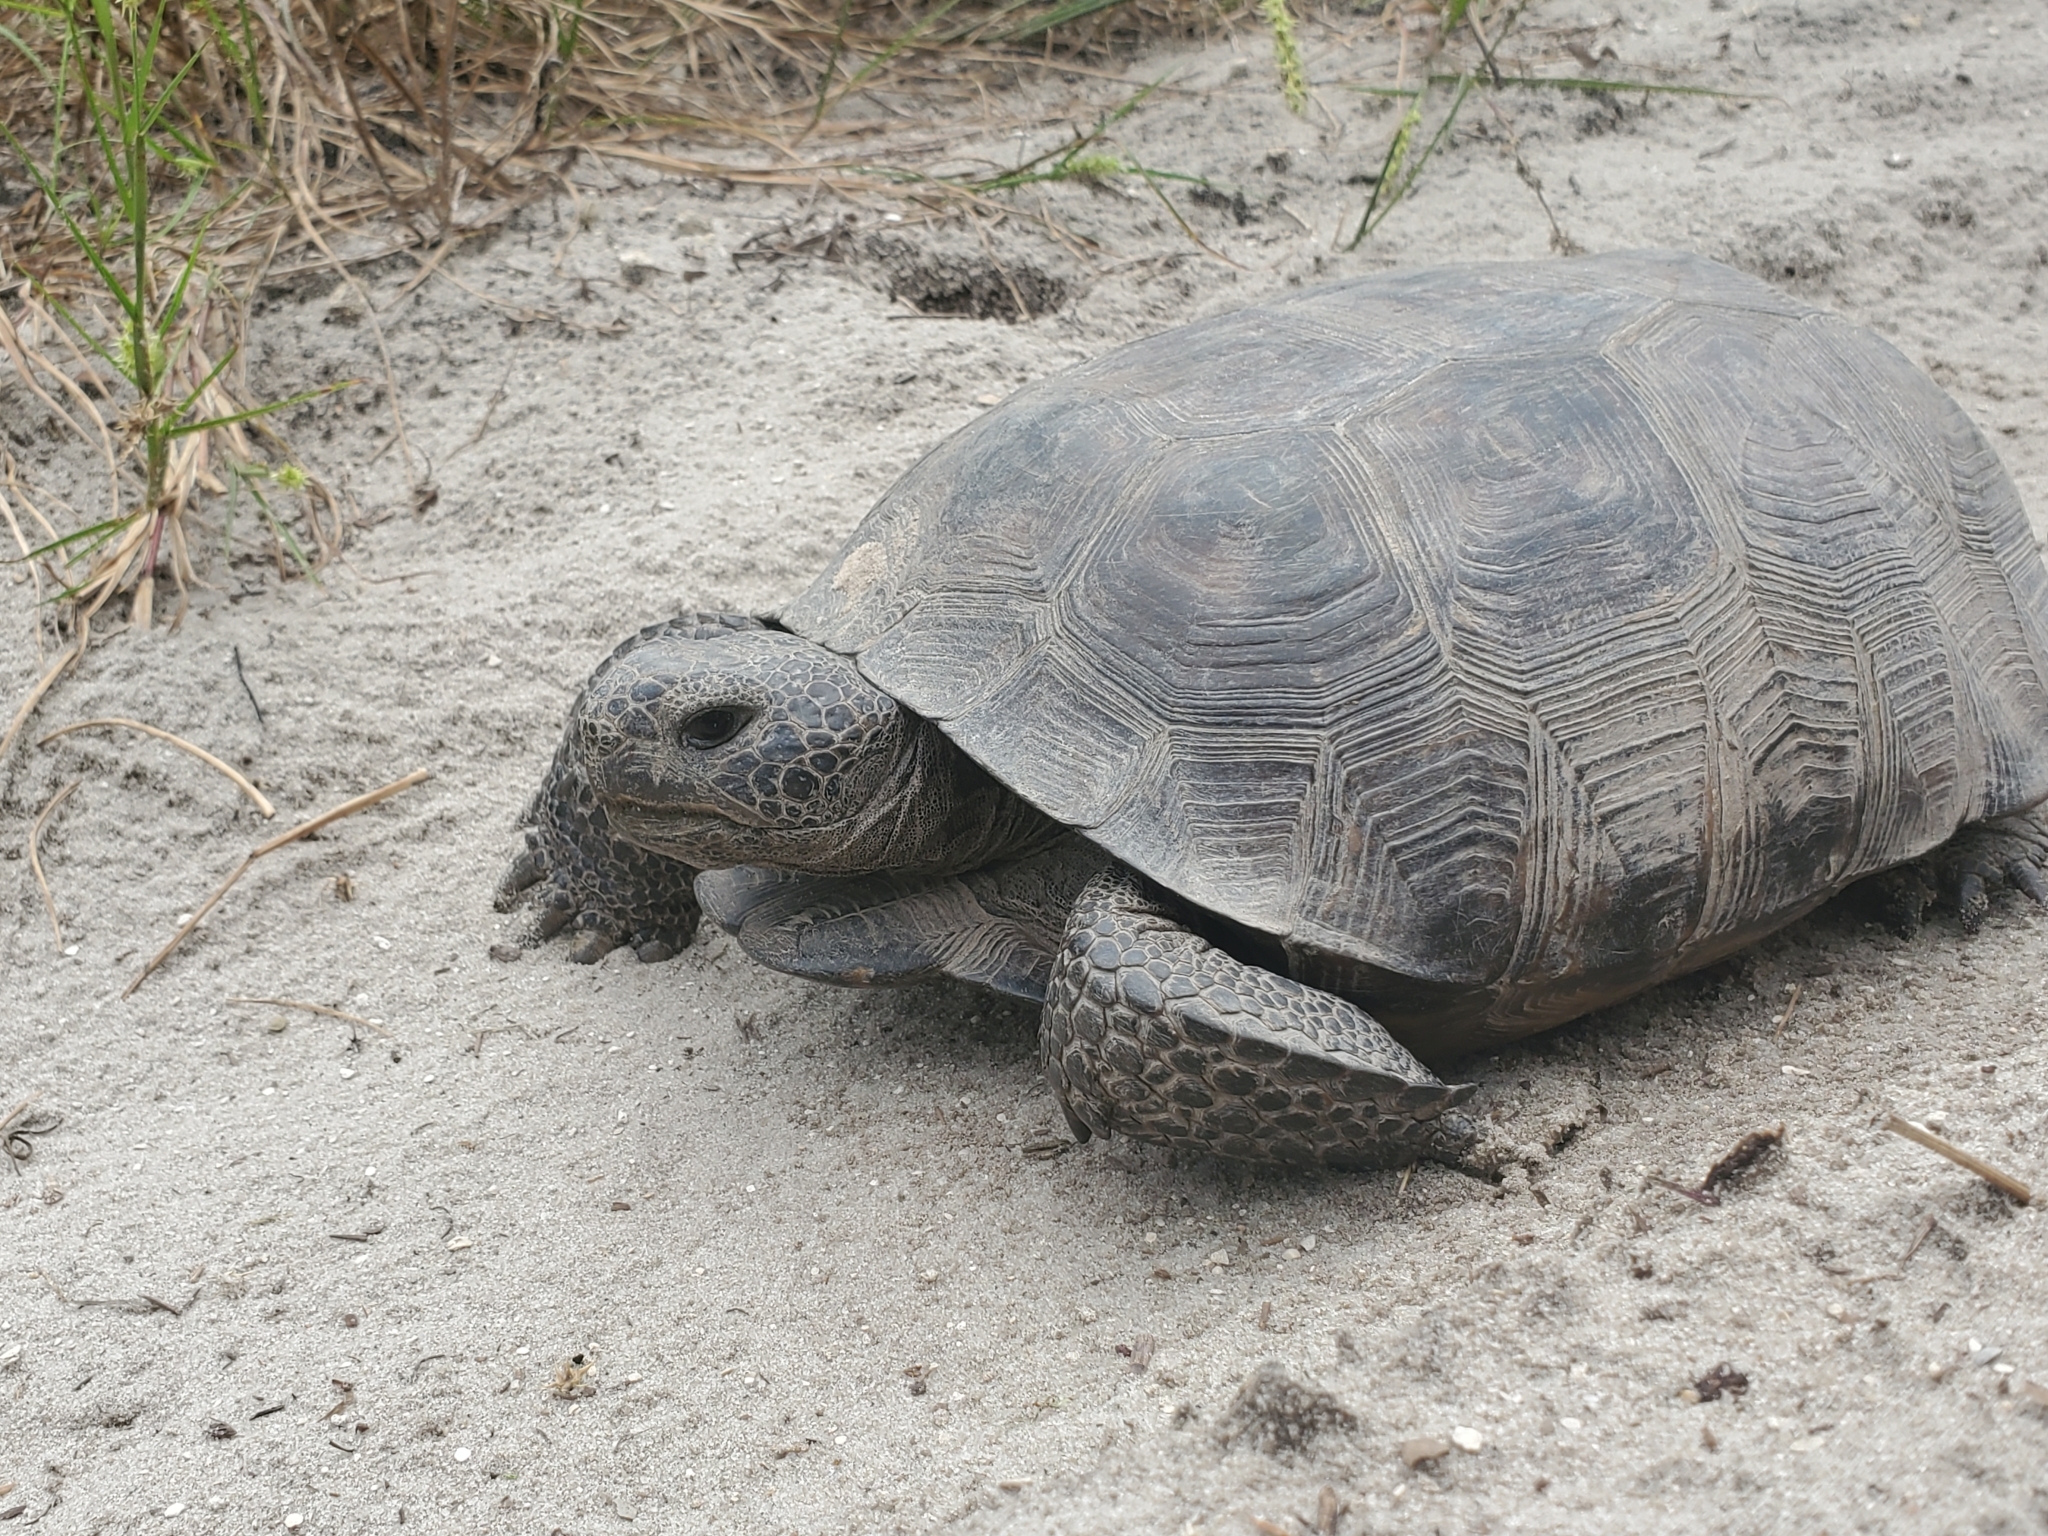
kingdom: Animalia
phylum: Chordata
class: Testudines
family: Testudinidae
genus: Gopherus
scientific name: Gopherus polyphemus
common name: Florida gopher tortoise
